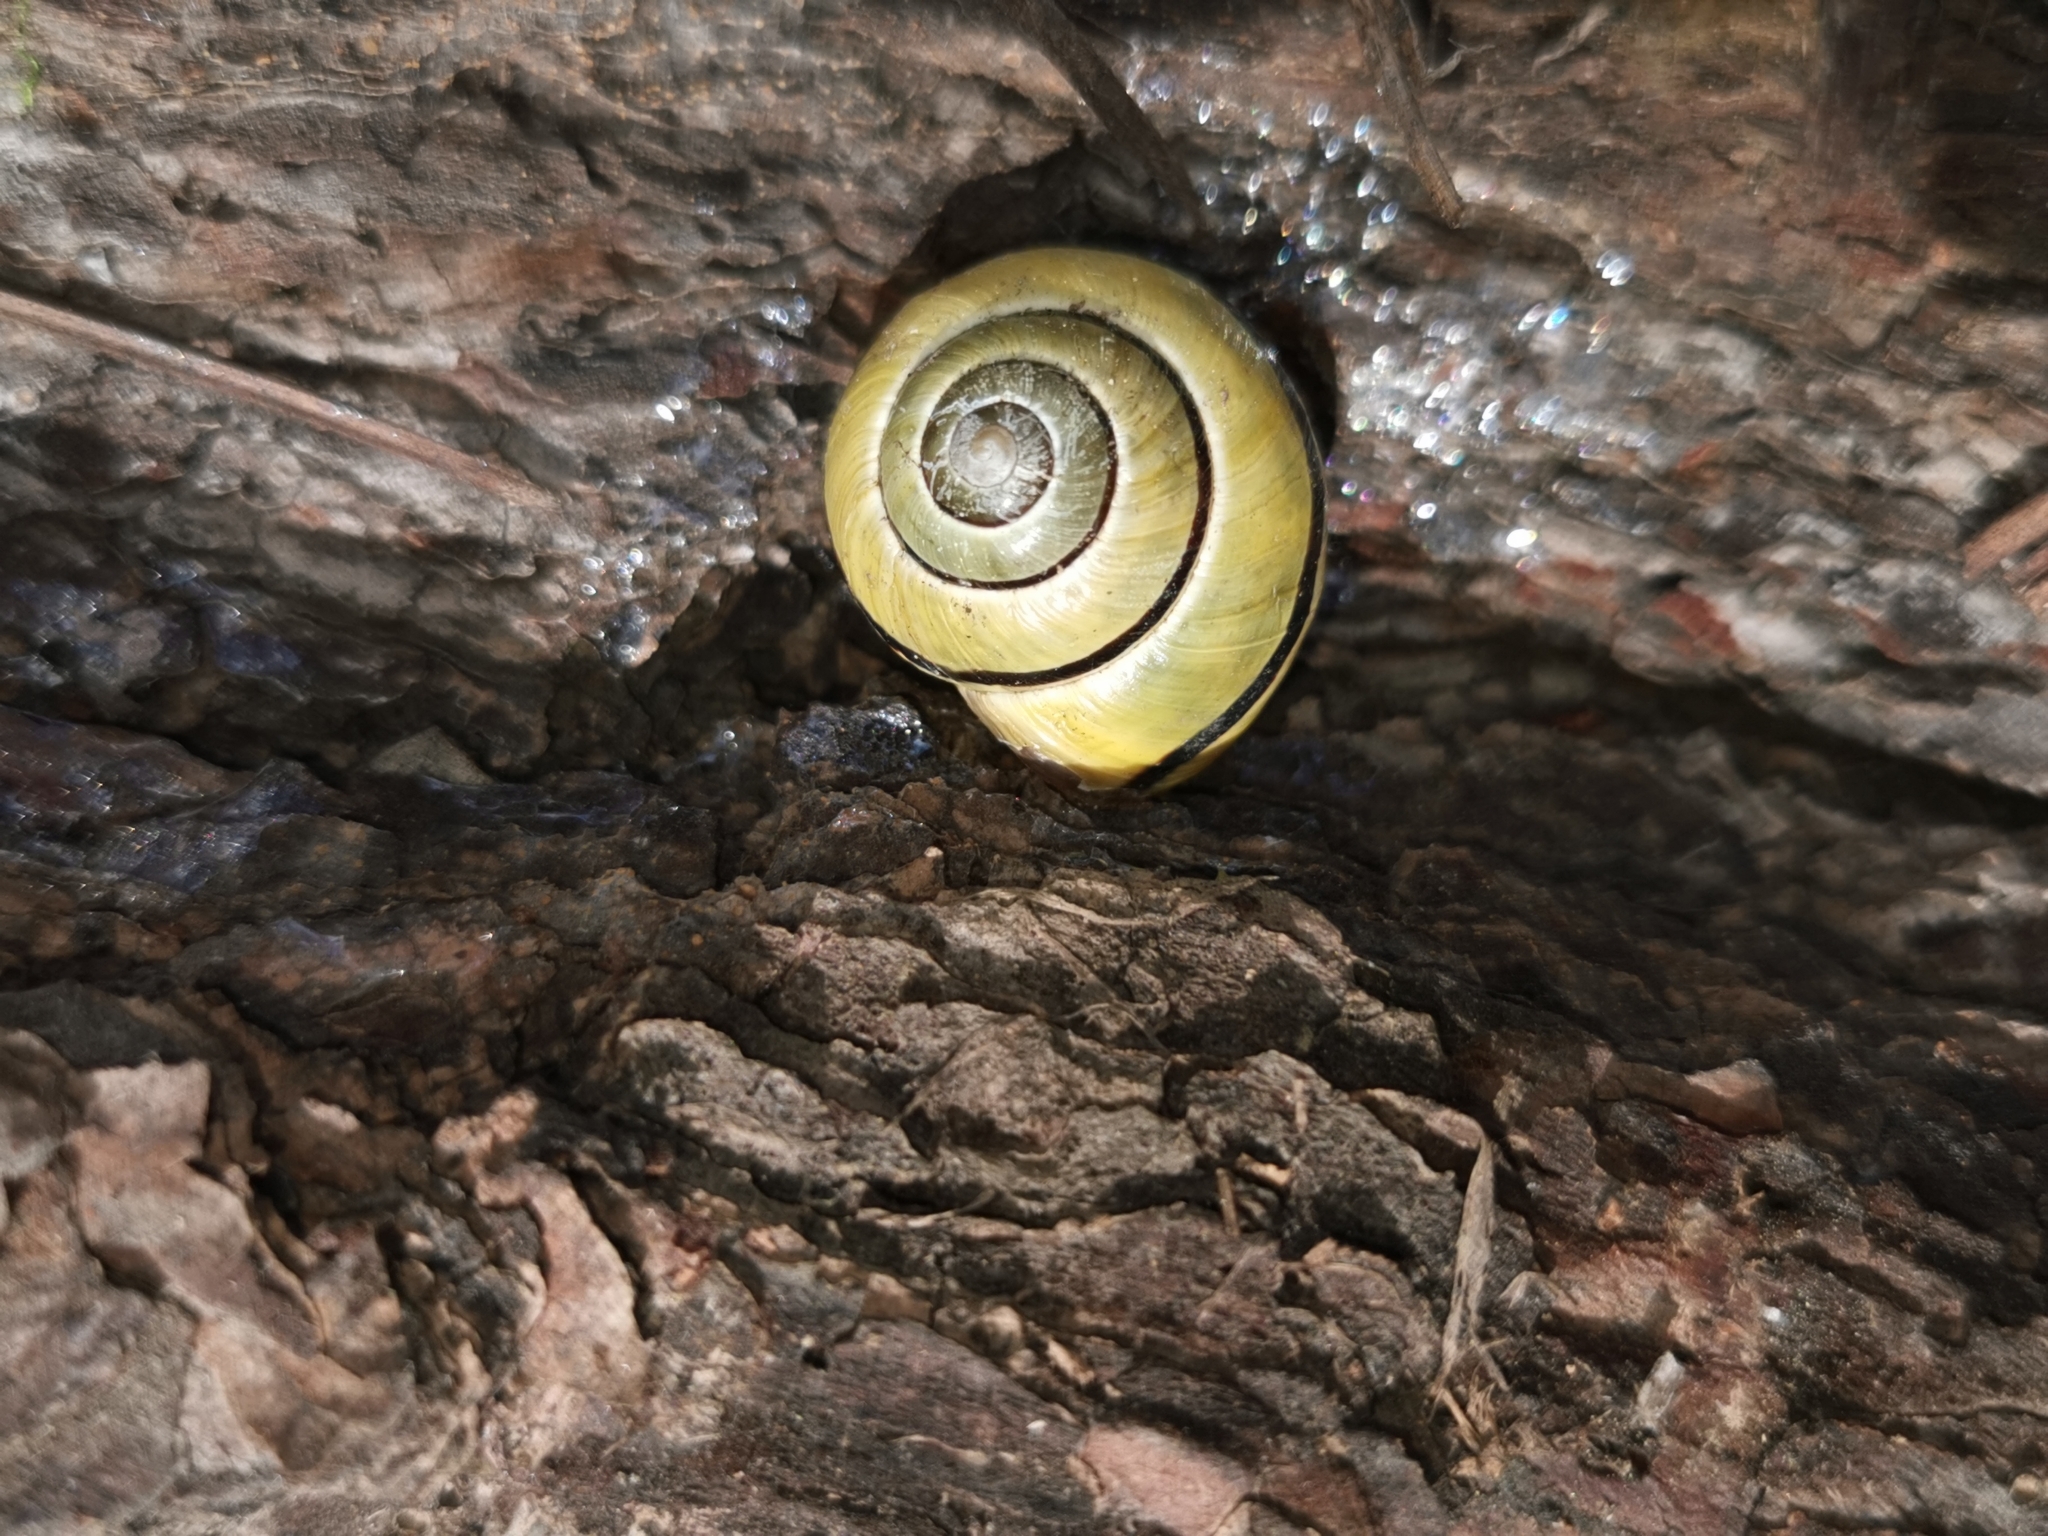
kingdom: Animalia
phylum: Mollusca
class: Gastropoda
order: Stylommatophora
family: Helicidae
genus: Cepaea
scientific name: Cepaea nemoralis
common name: Grovesnail
